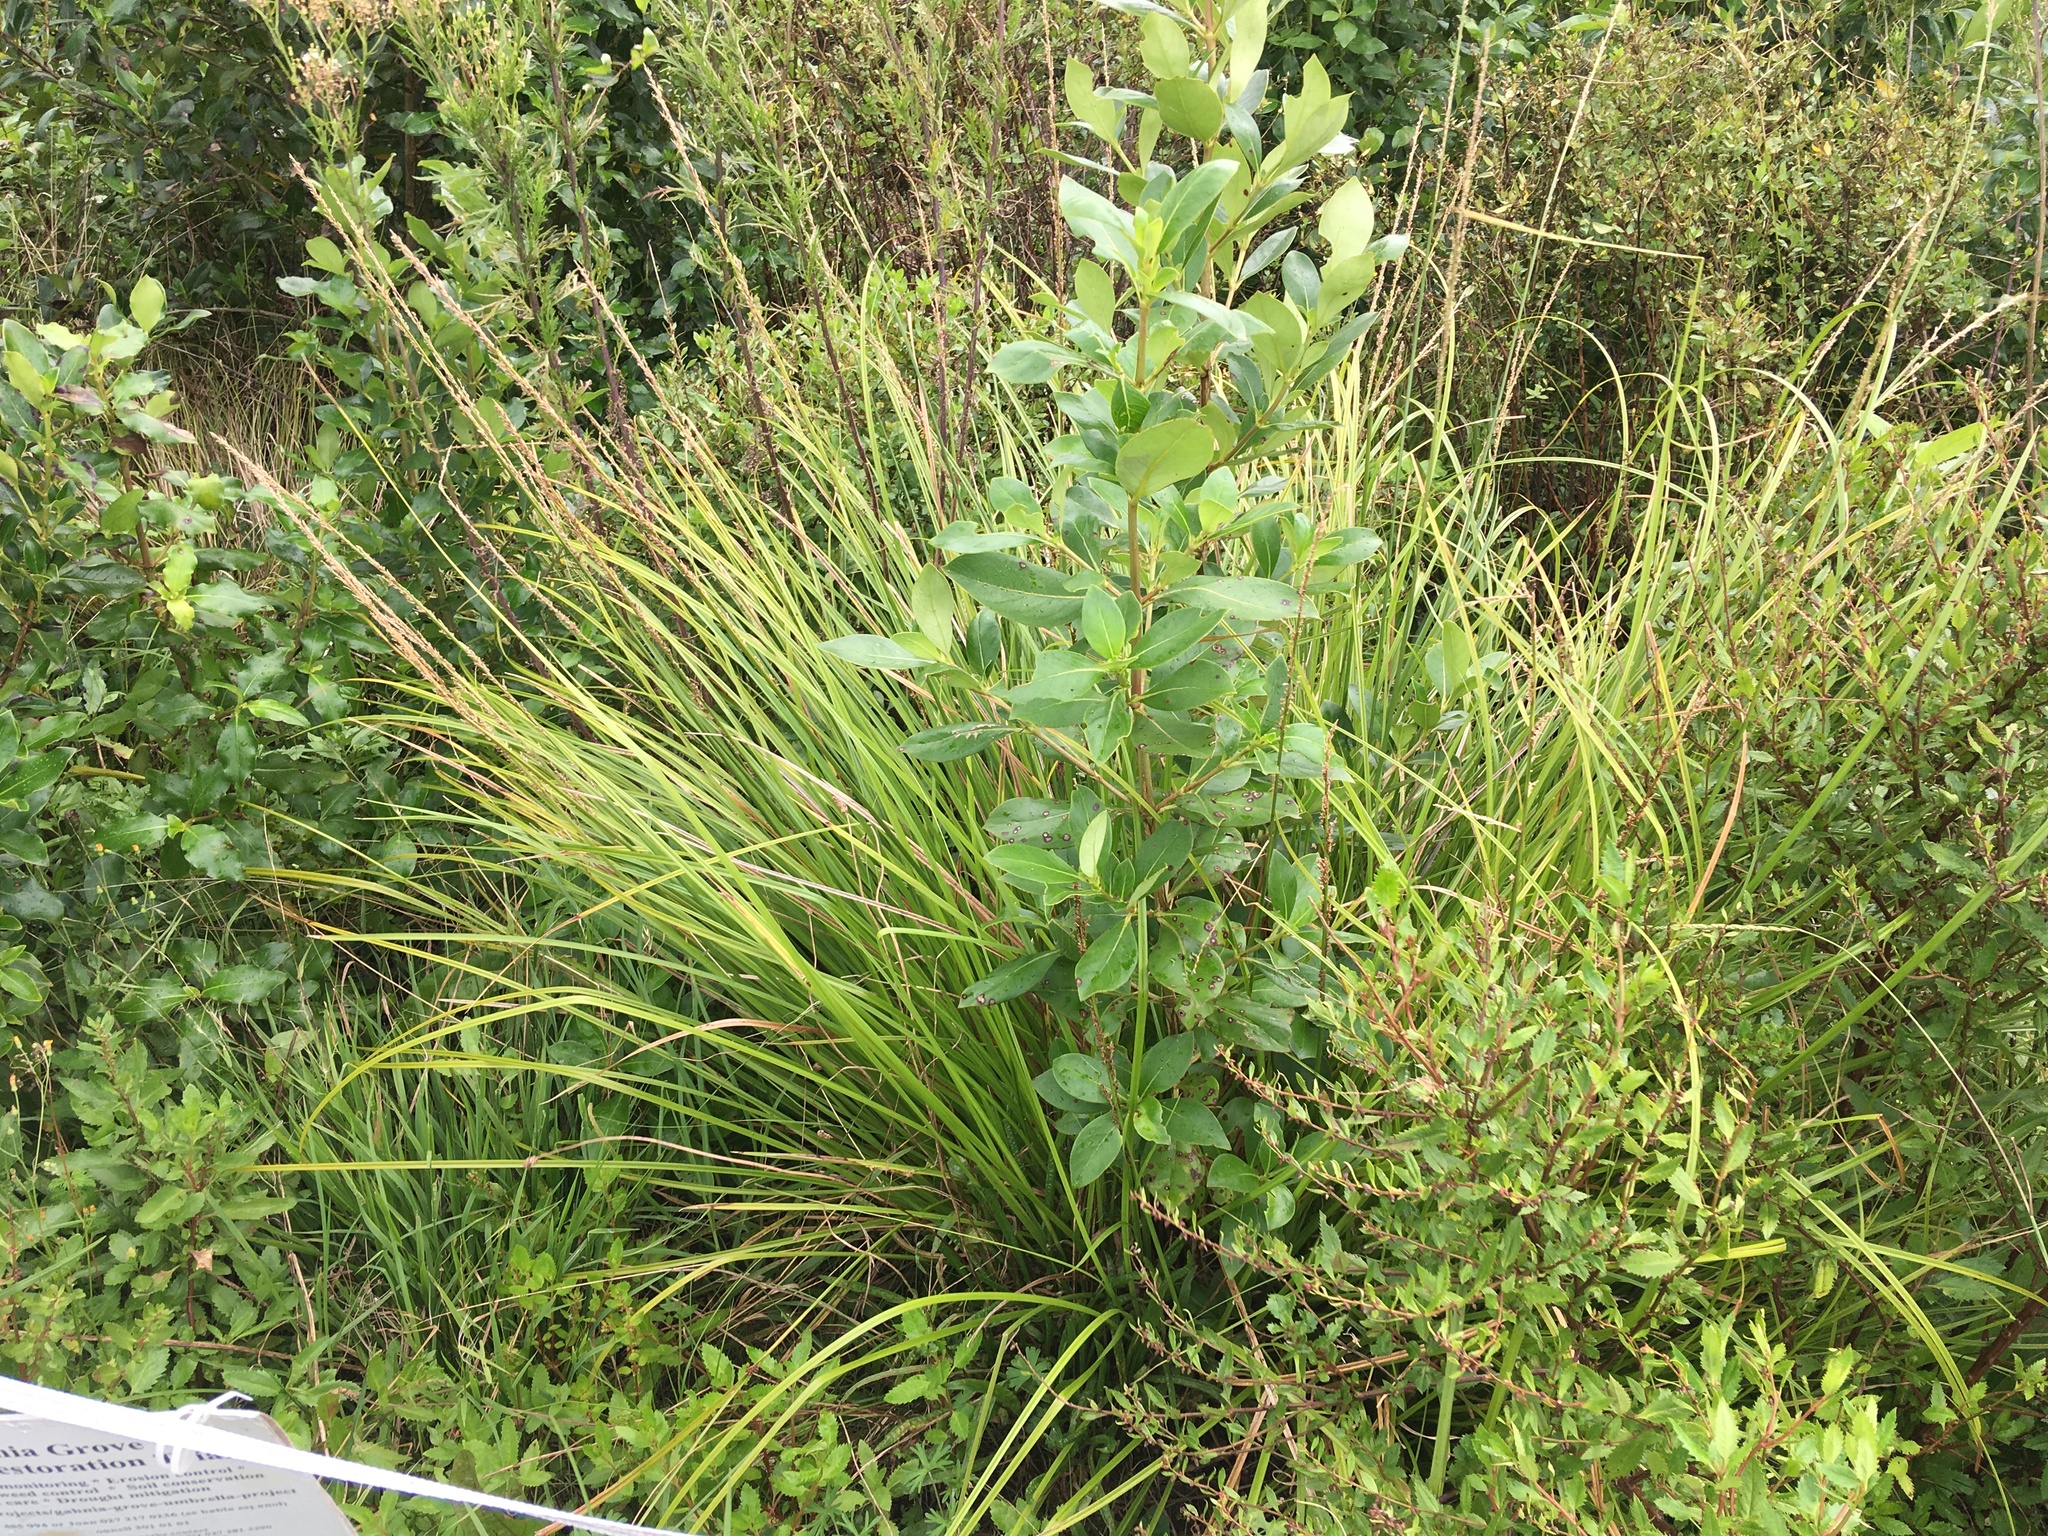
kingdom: Plantae
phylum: Tracheophyta
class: Liliopsida
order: Poales
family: Cyperaceae
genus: Carex
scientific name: Carex virgata
